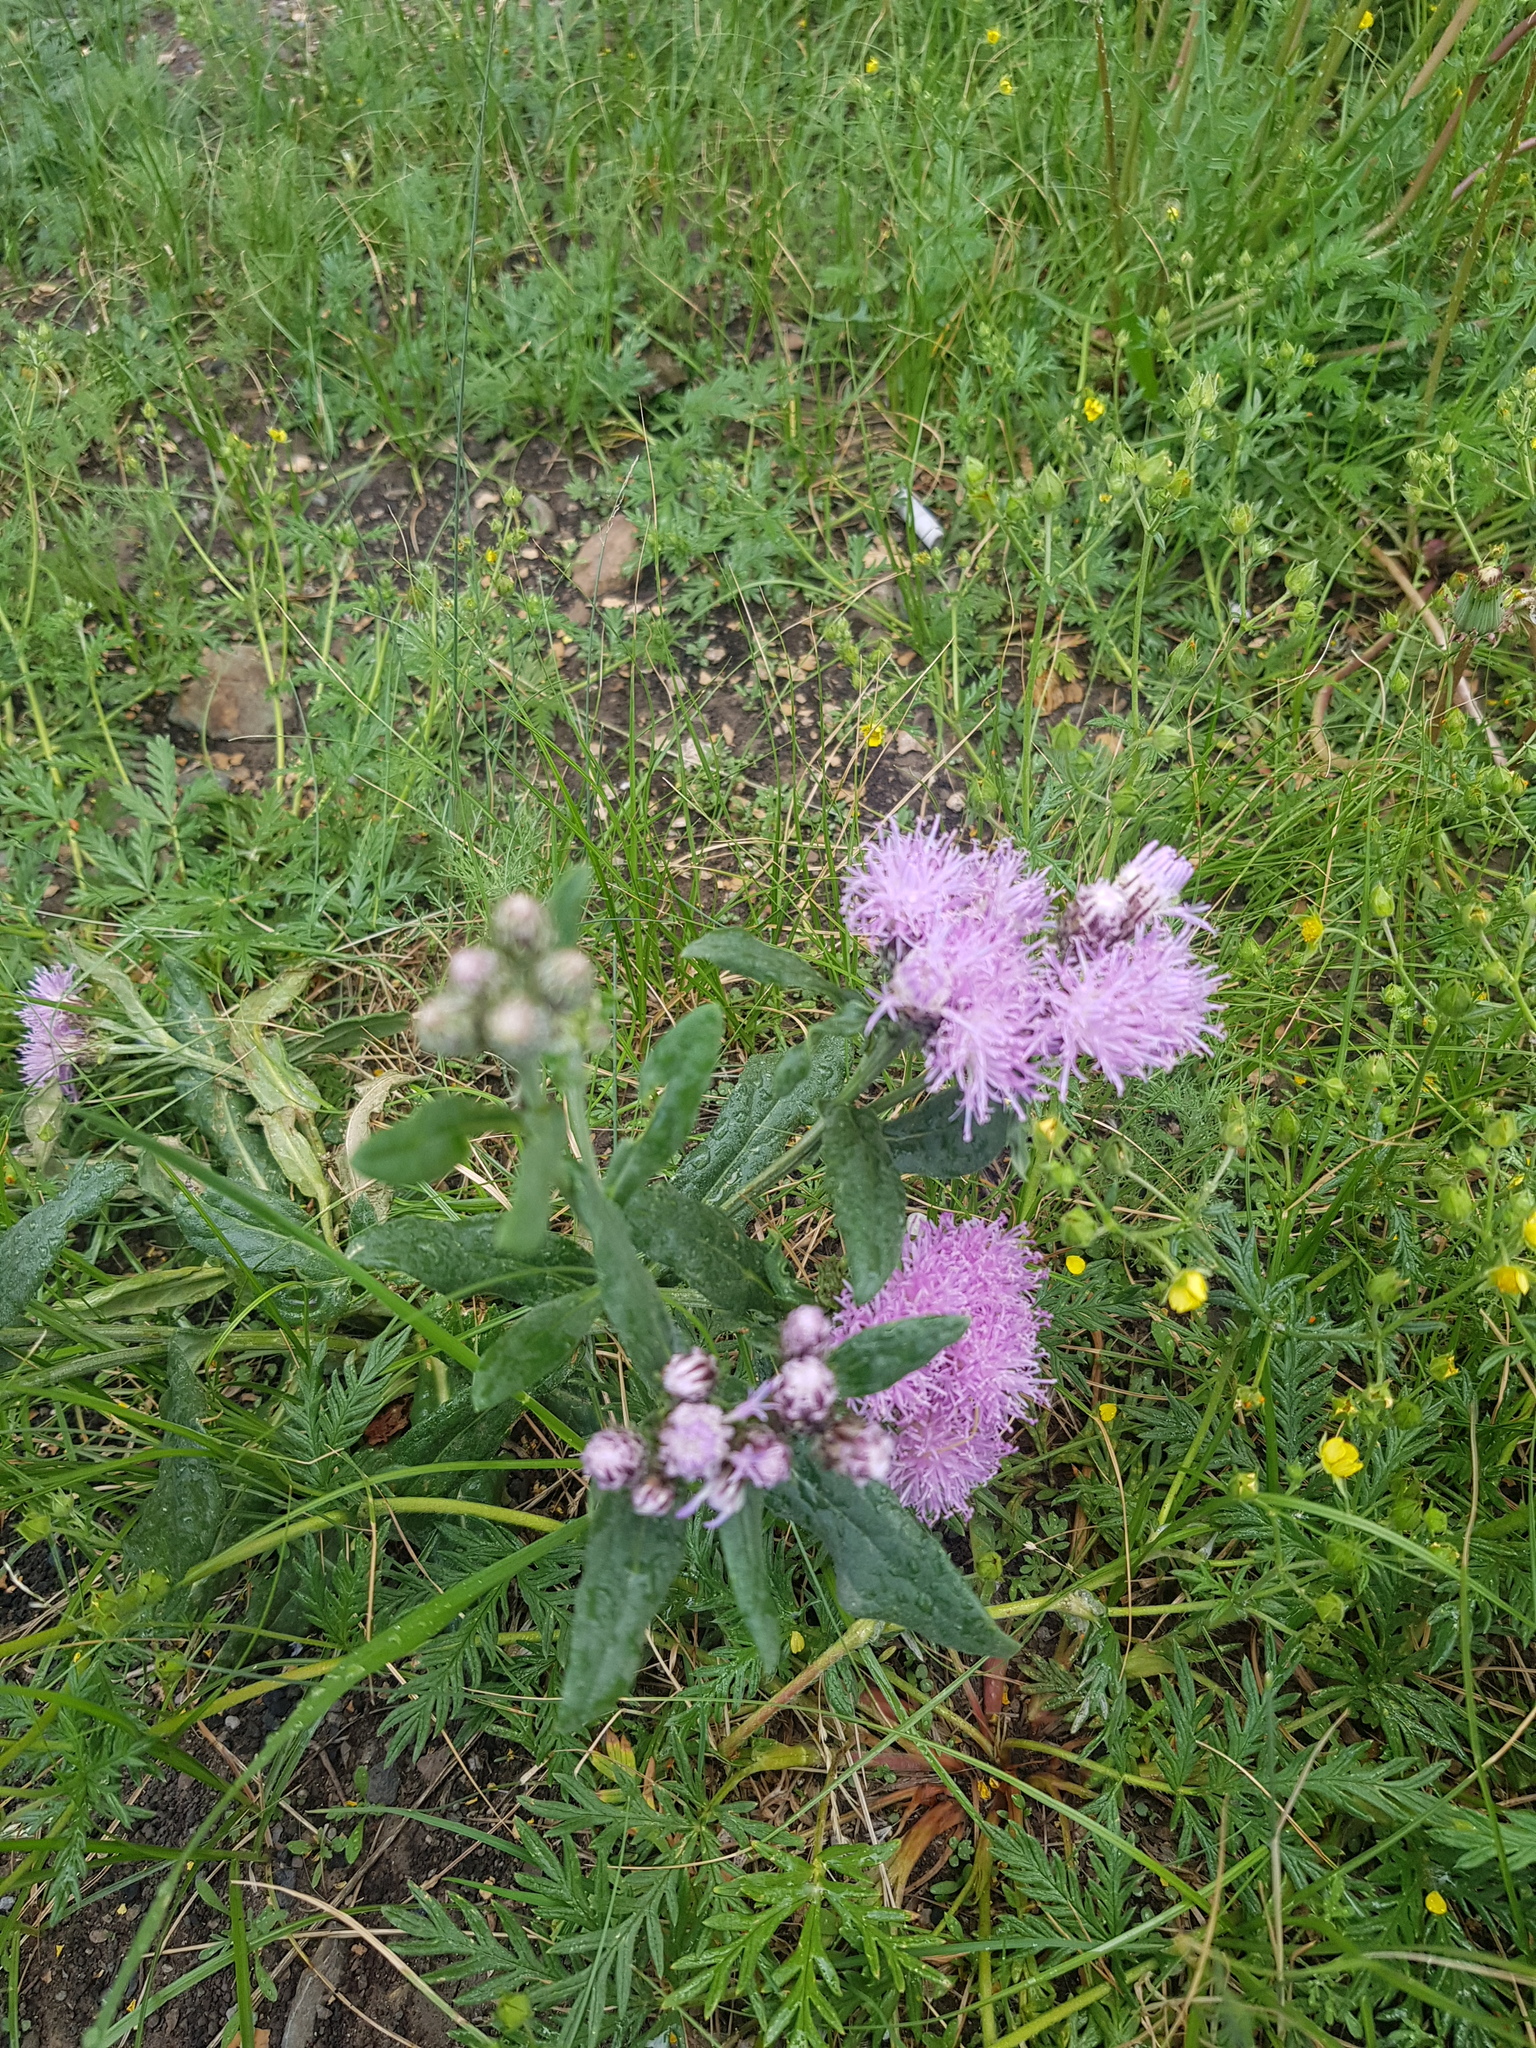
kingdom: Plantae
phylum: Tracheophyta
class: Magnoliopsida
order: Asterales
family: Asteraceae
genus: Saussurea
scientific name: Saussurea salicifolia
